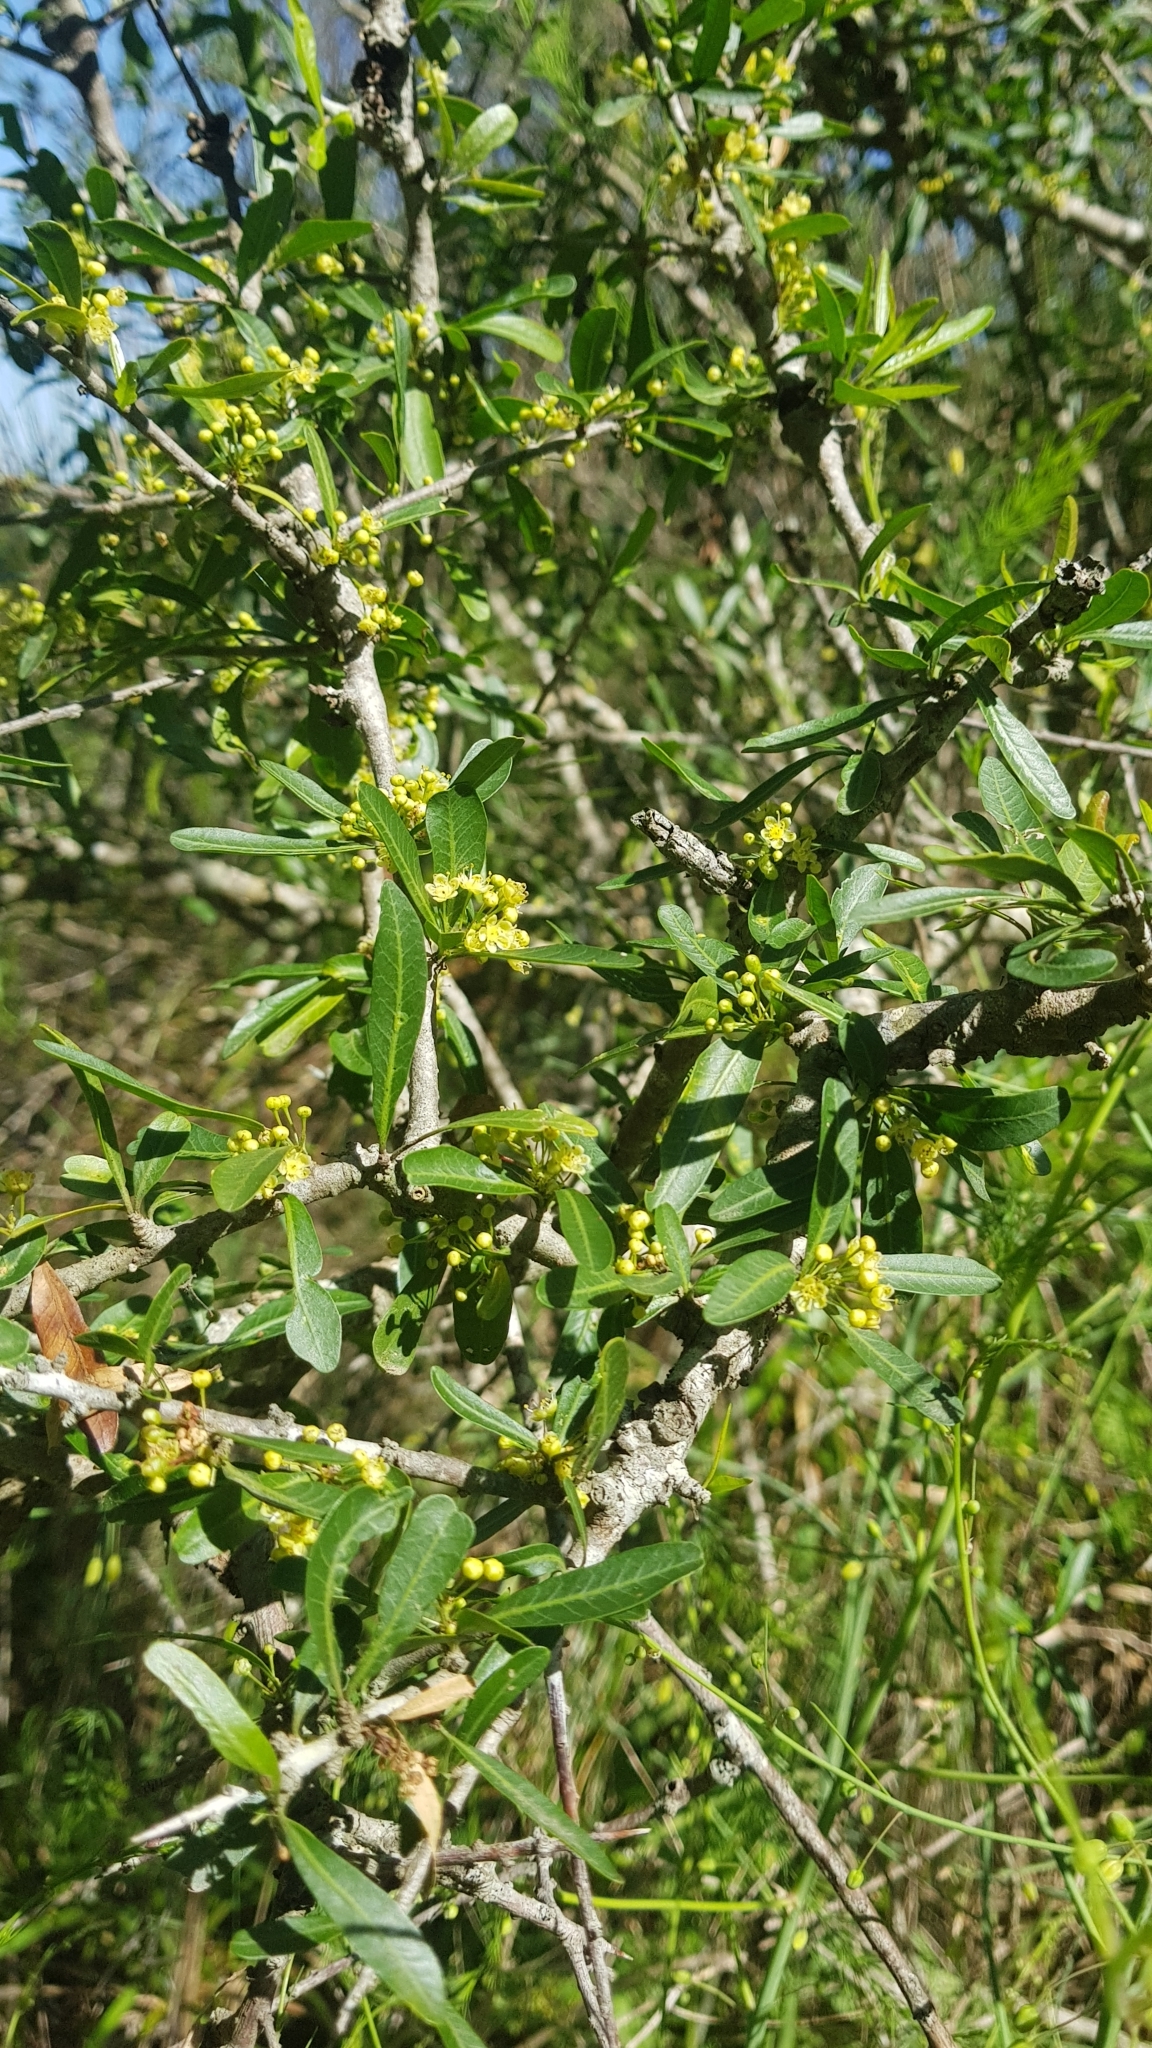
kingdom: Plantae
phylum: Tracheophyta
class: Magnoliopsida
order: Sapindales
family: Anacardiaceae
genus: Schinus
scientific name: Schinus longifolia
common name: Longleaf peppertree
